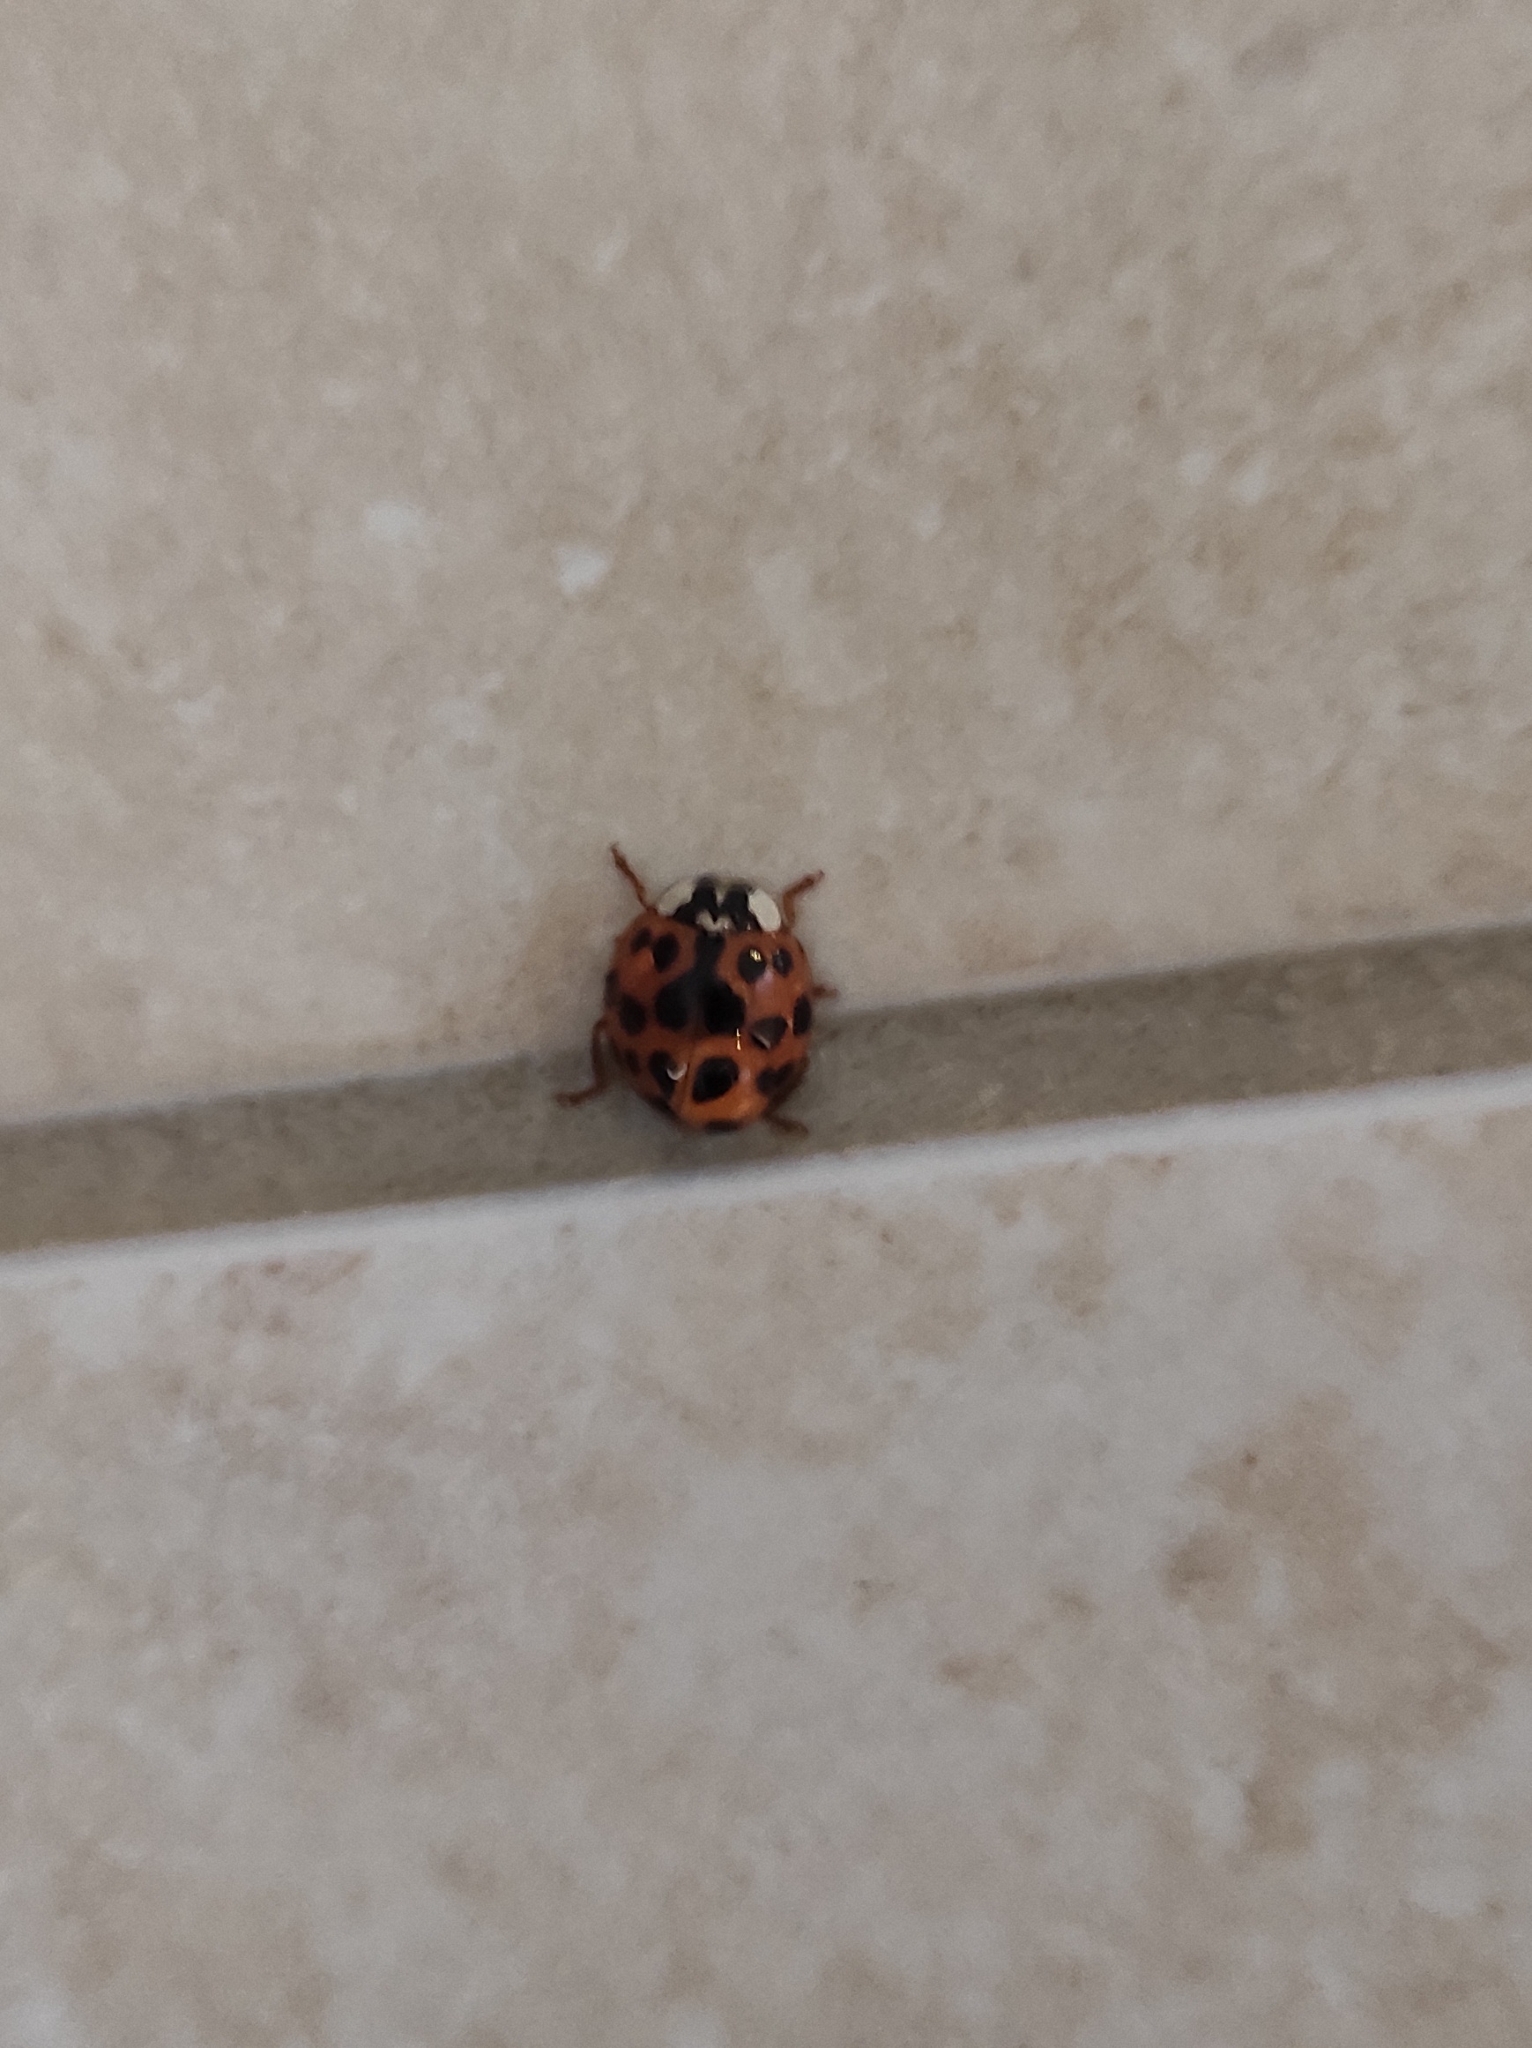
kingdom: Animalia
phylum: Arthropoda
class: Insecta
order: Coleoptera
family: Coccinellidae
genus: Harmonia
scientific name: Harmonia axyridis
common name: Harlequin ladybird
